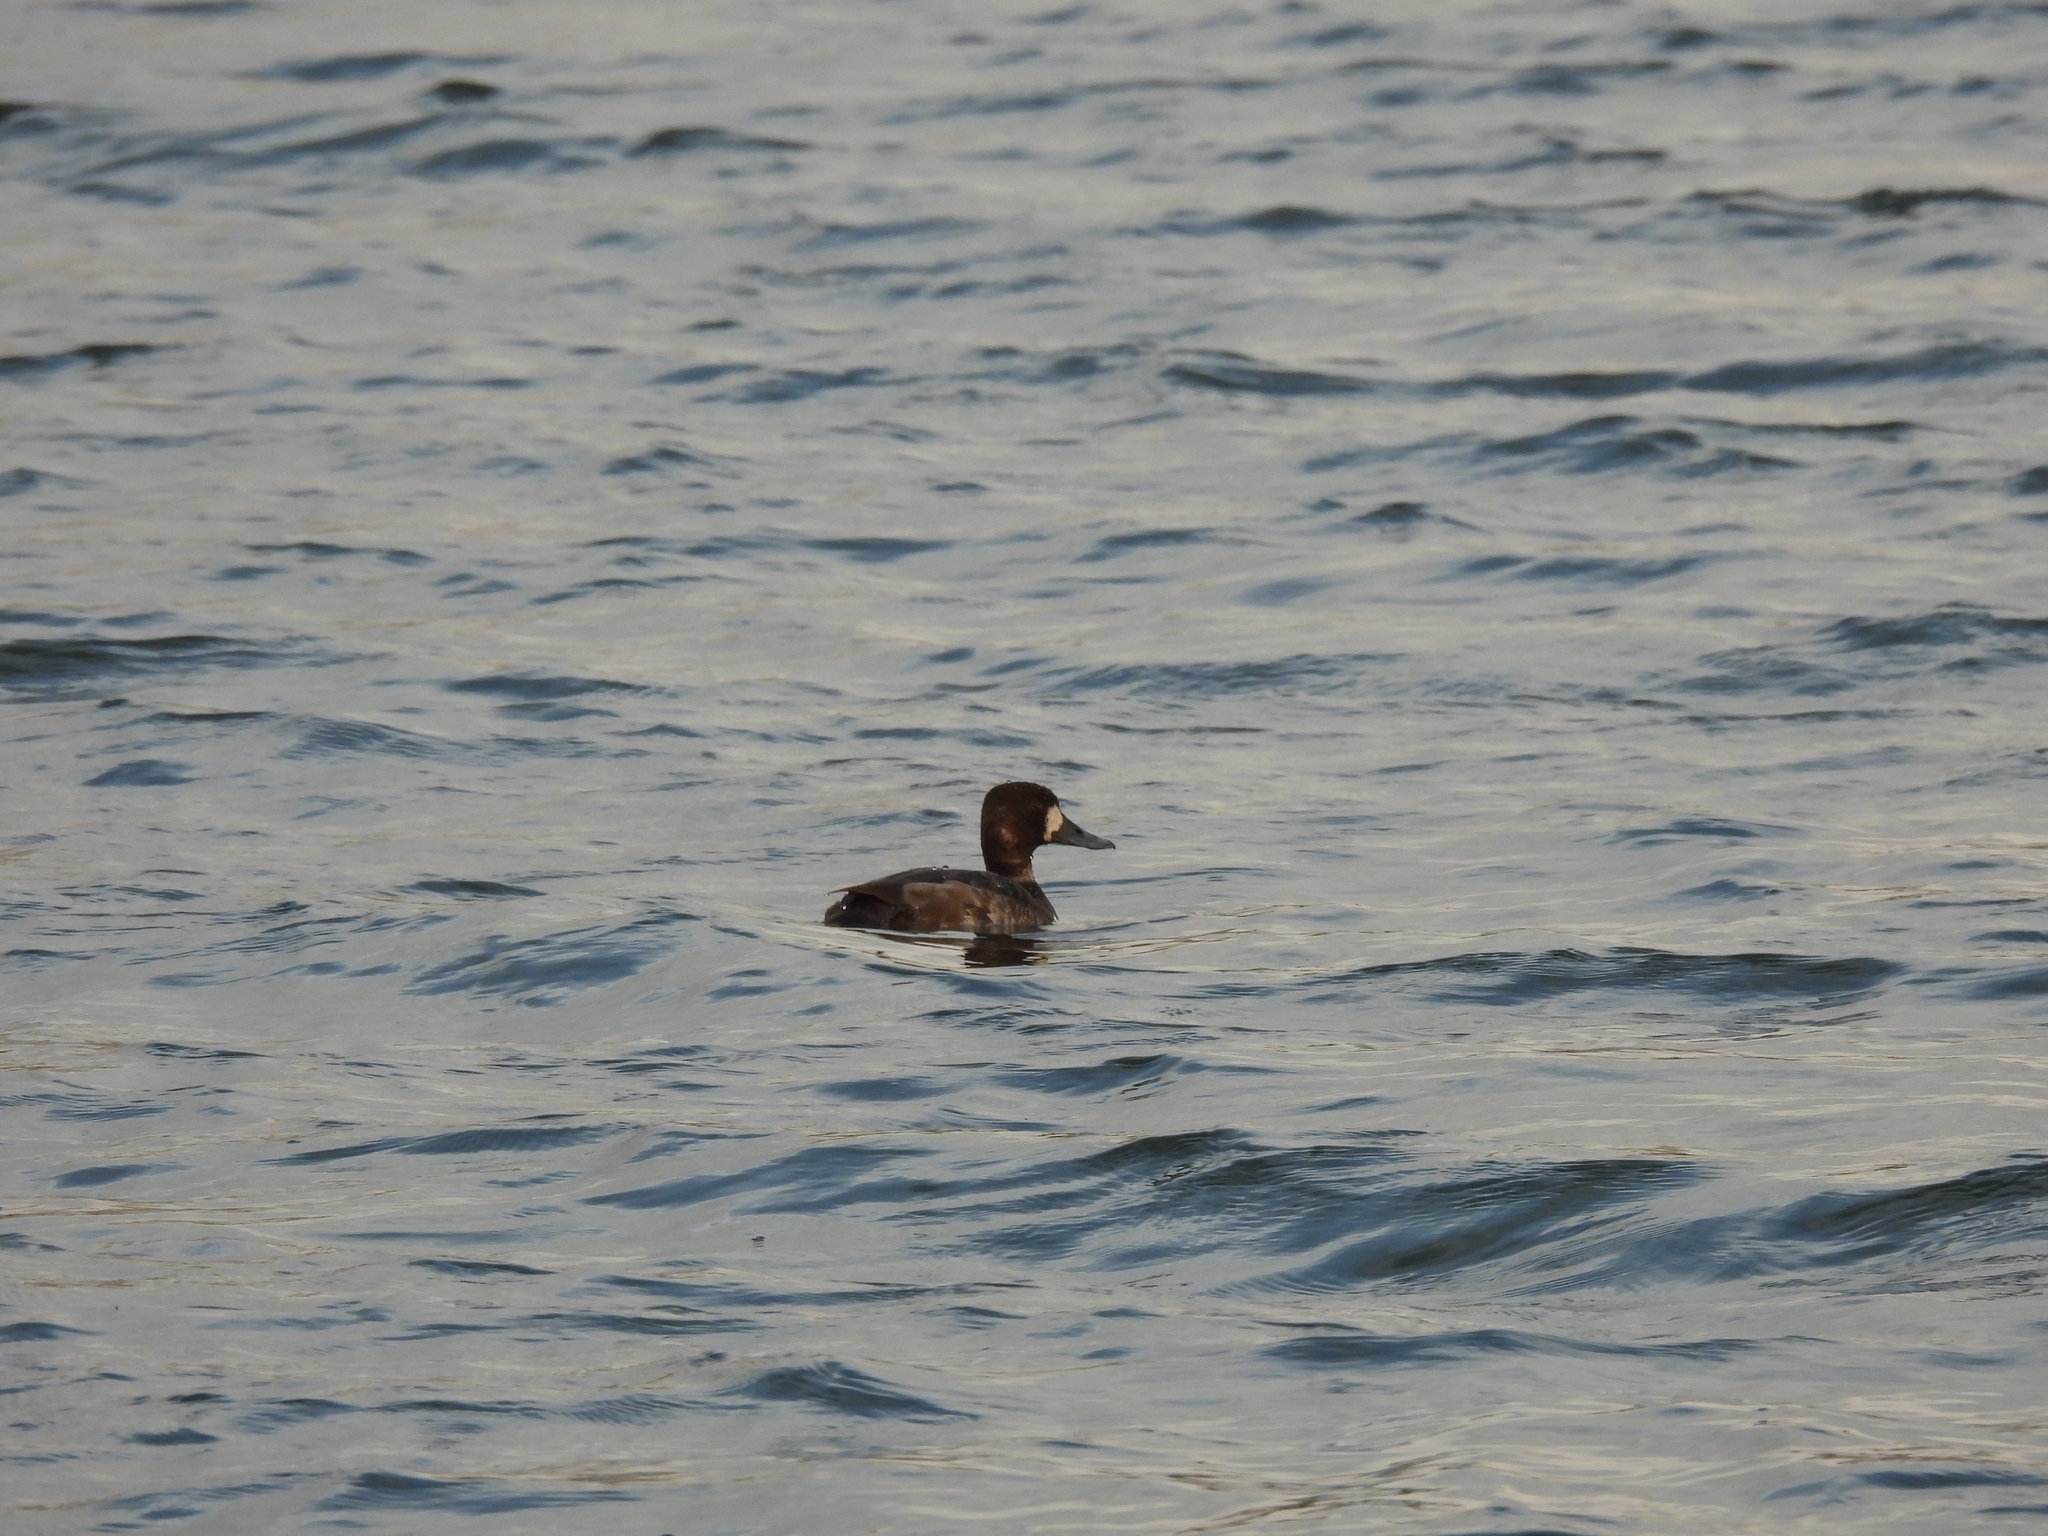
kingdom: Animalia
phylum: Chordata
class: Aves
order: Anseriformes
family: Anatidae
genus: Aythya
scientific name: Aythya marila
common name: Greater scaup
